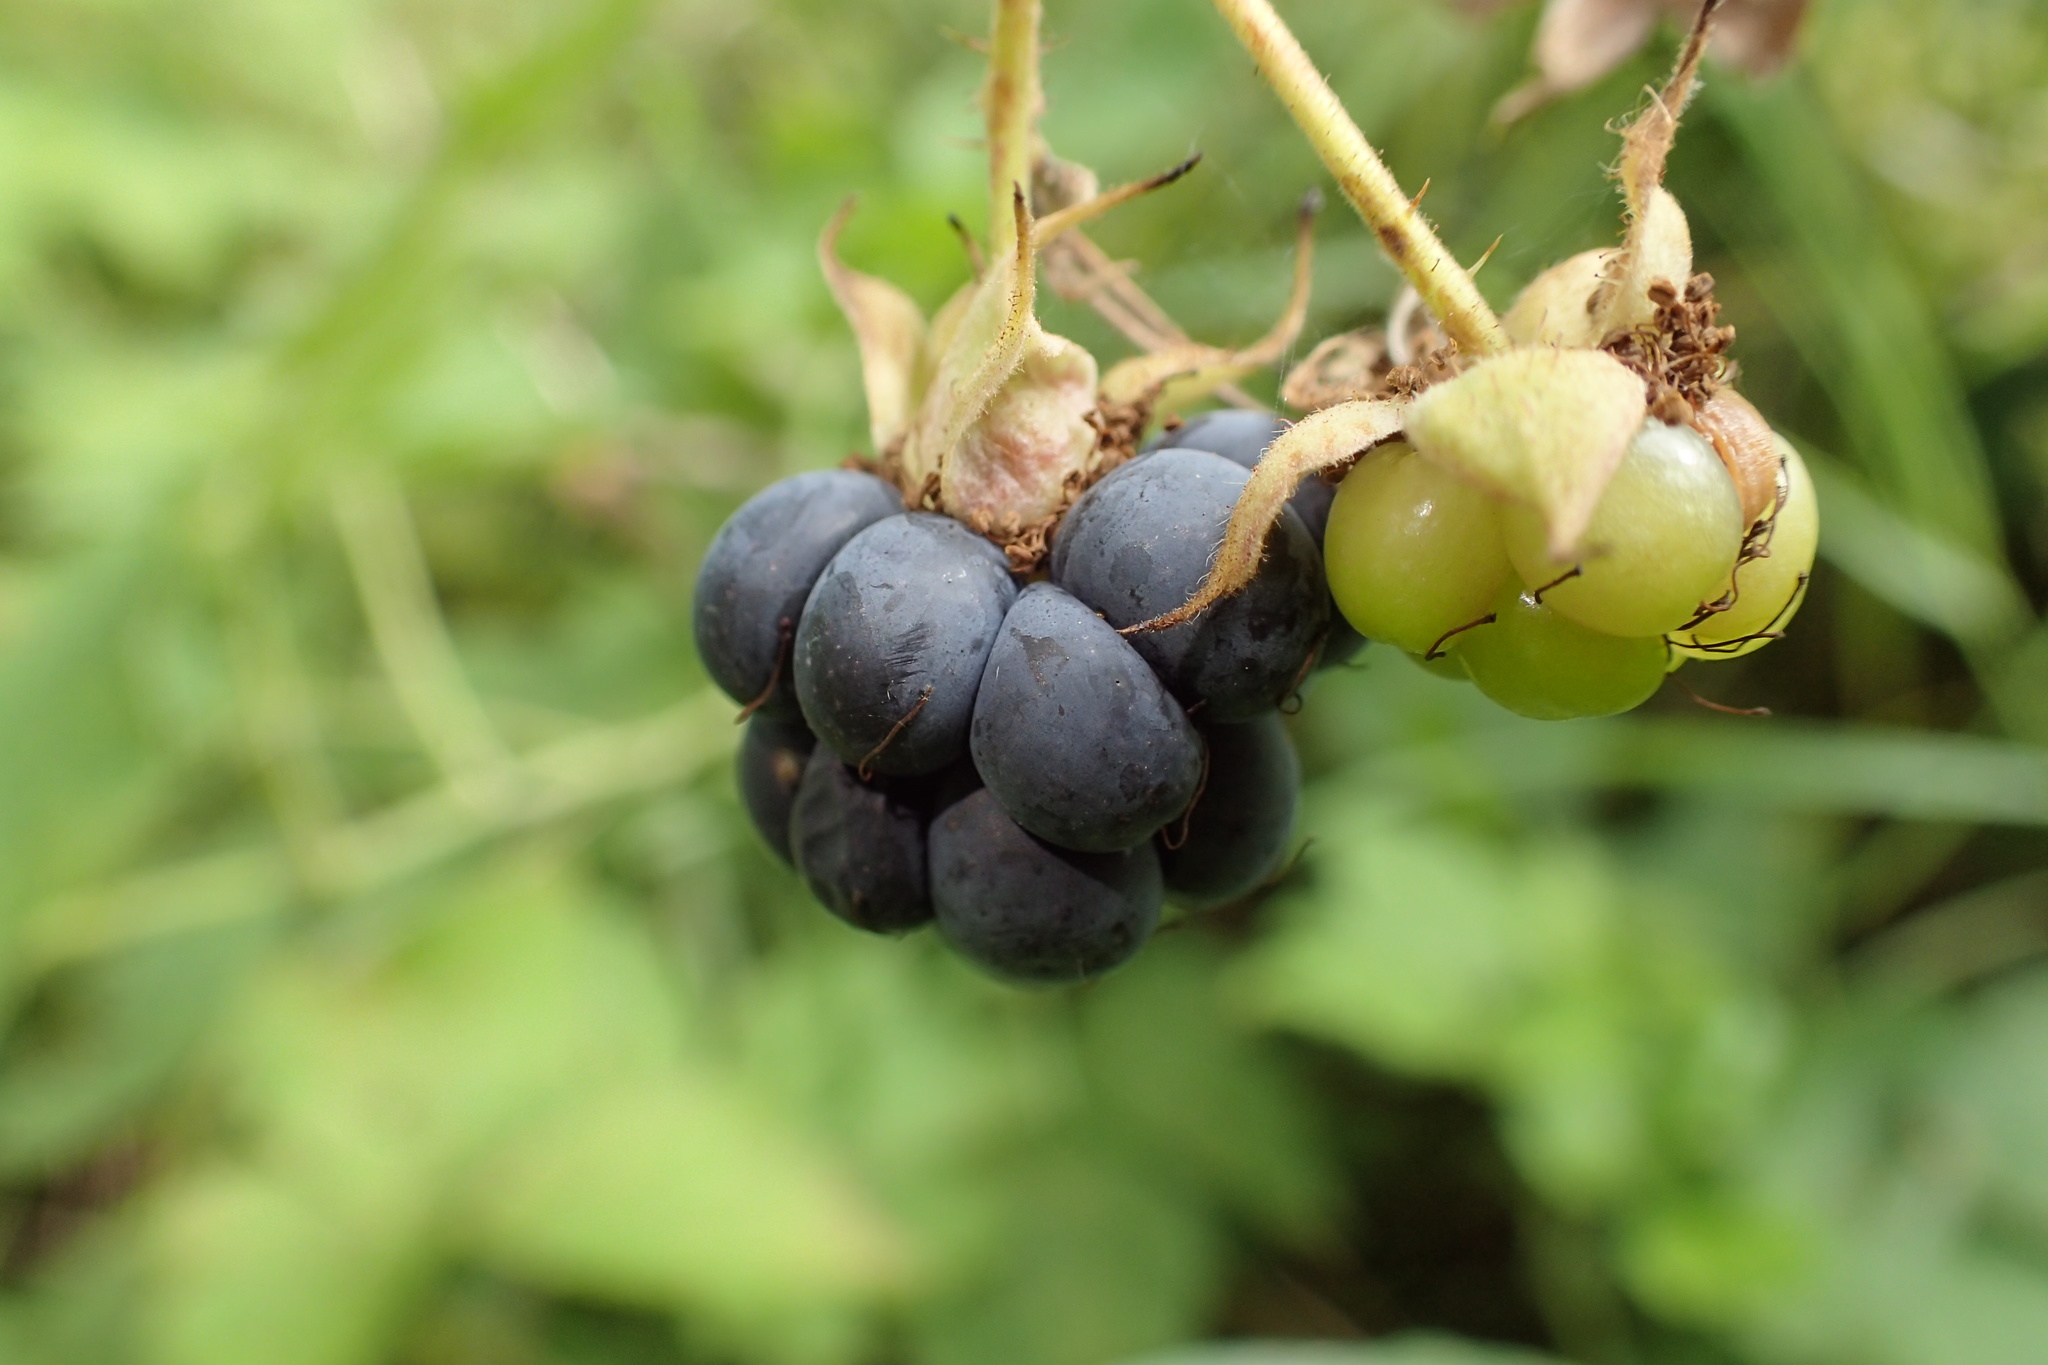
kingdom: Plantae
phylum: Tracheophyta
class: Magnoliopsida
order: Rosales
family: Rosaceae
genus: Rubus
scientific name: Rubus caesius
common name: Dewberry
